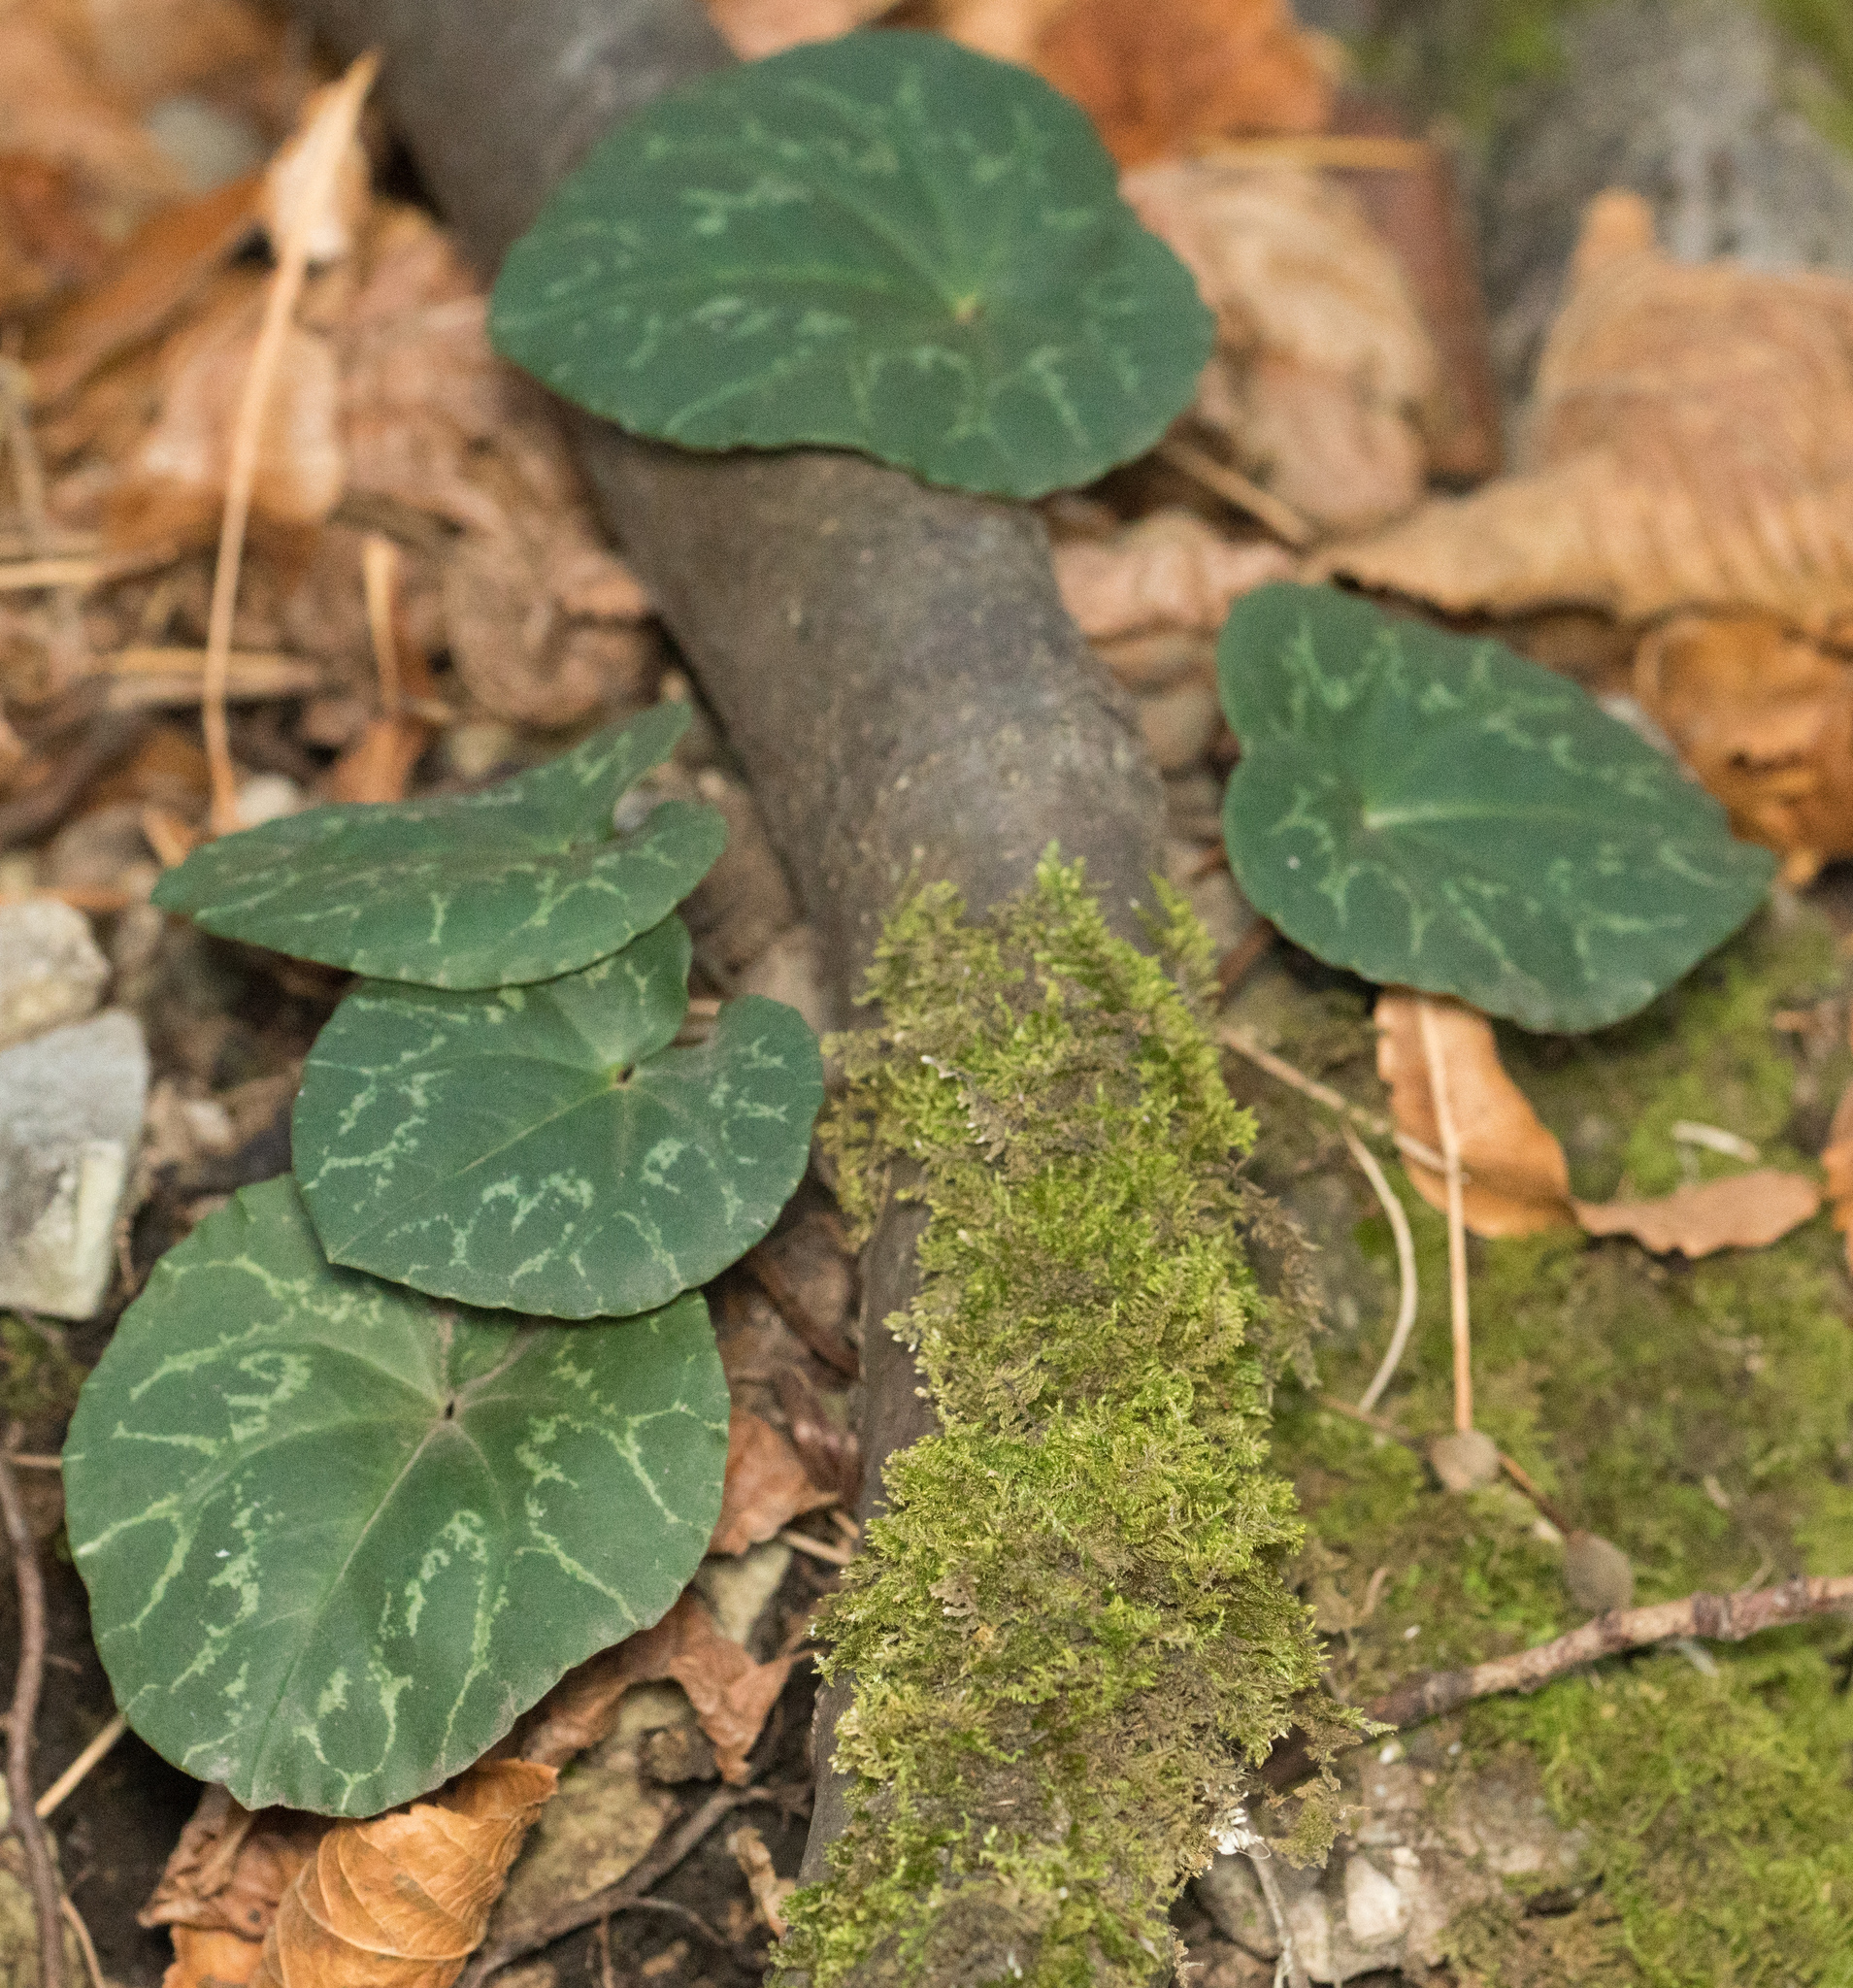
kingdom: Plantae
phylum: Tracheophyta
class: Magnoliopsida
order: Ericales
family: Primulaceae
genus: Cyclamen
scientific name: Cyclamen purpurascens
